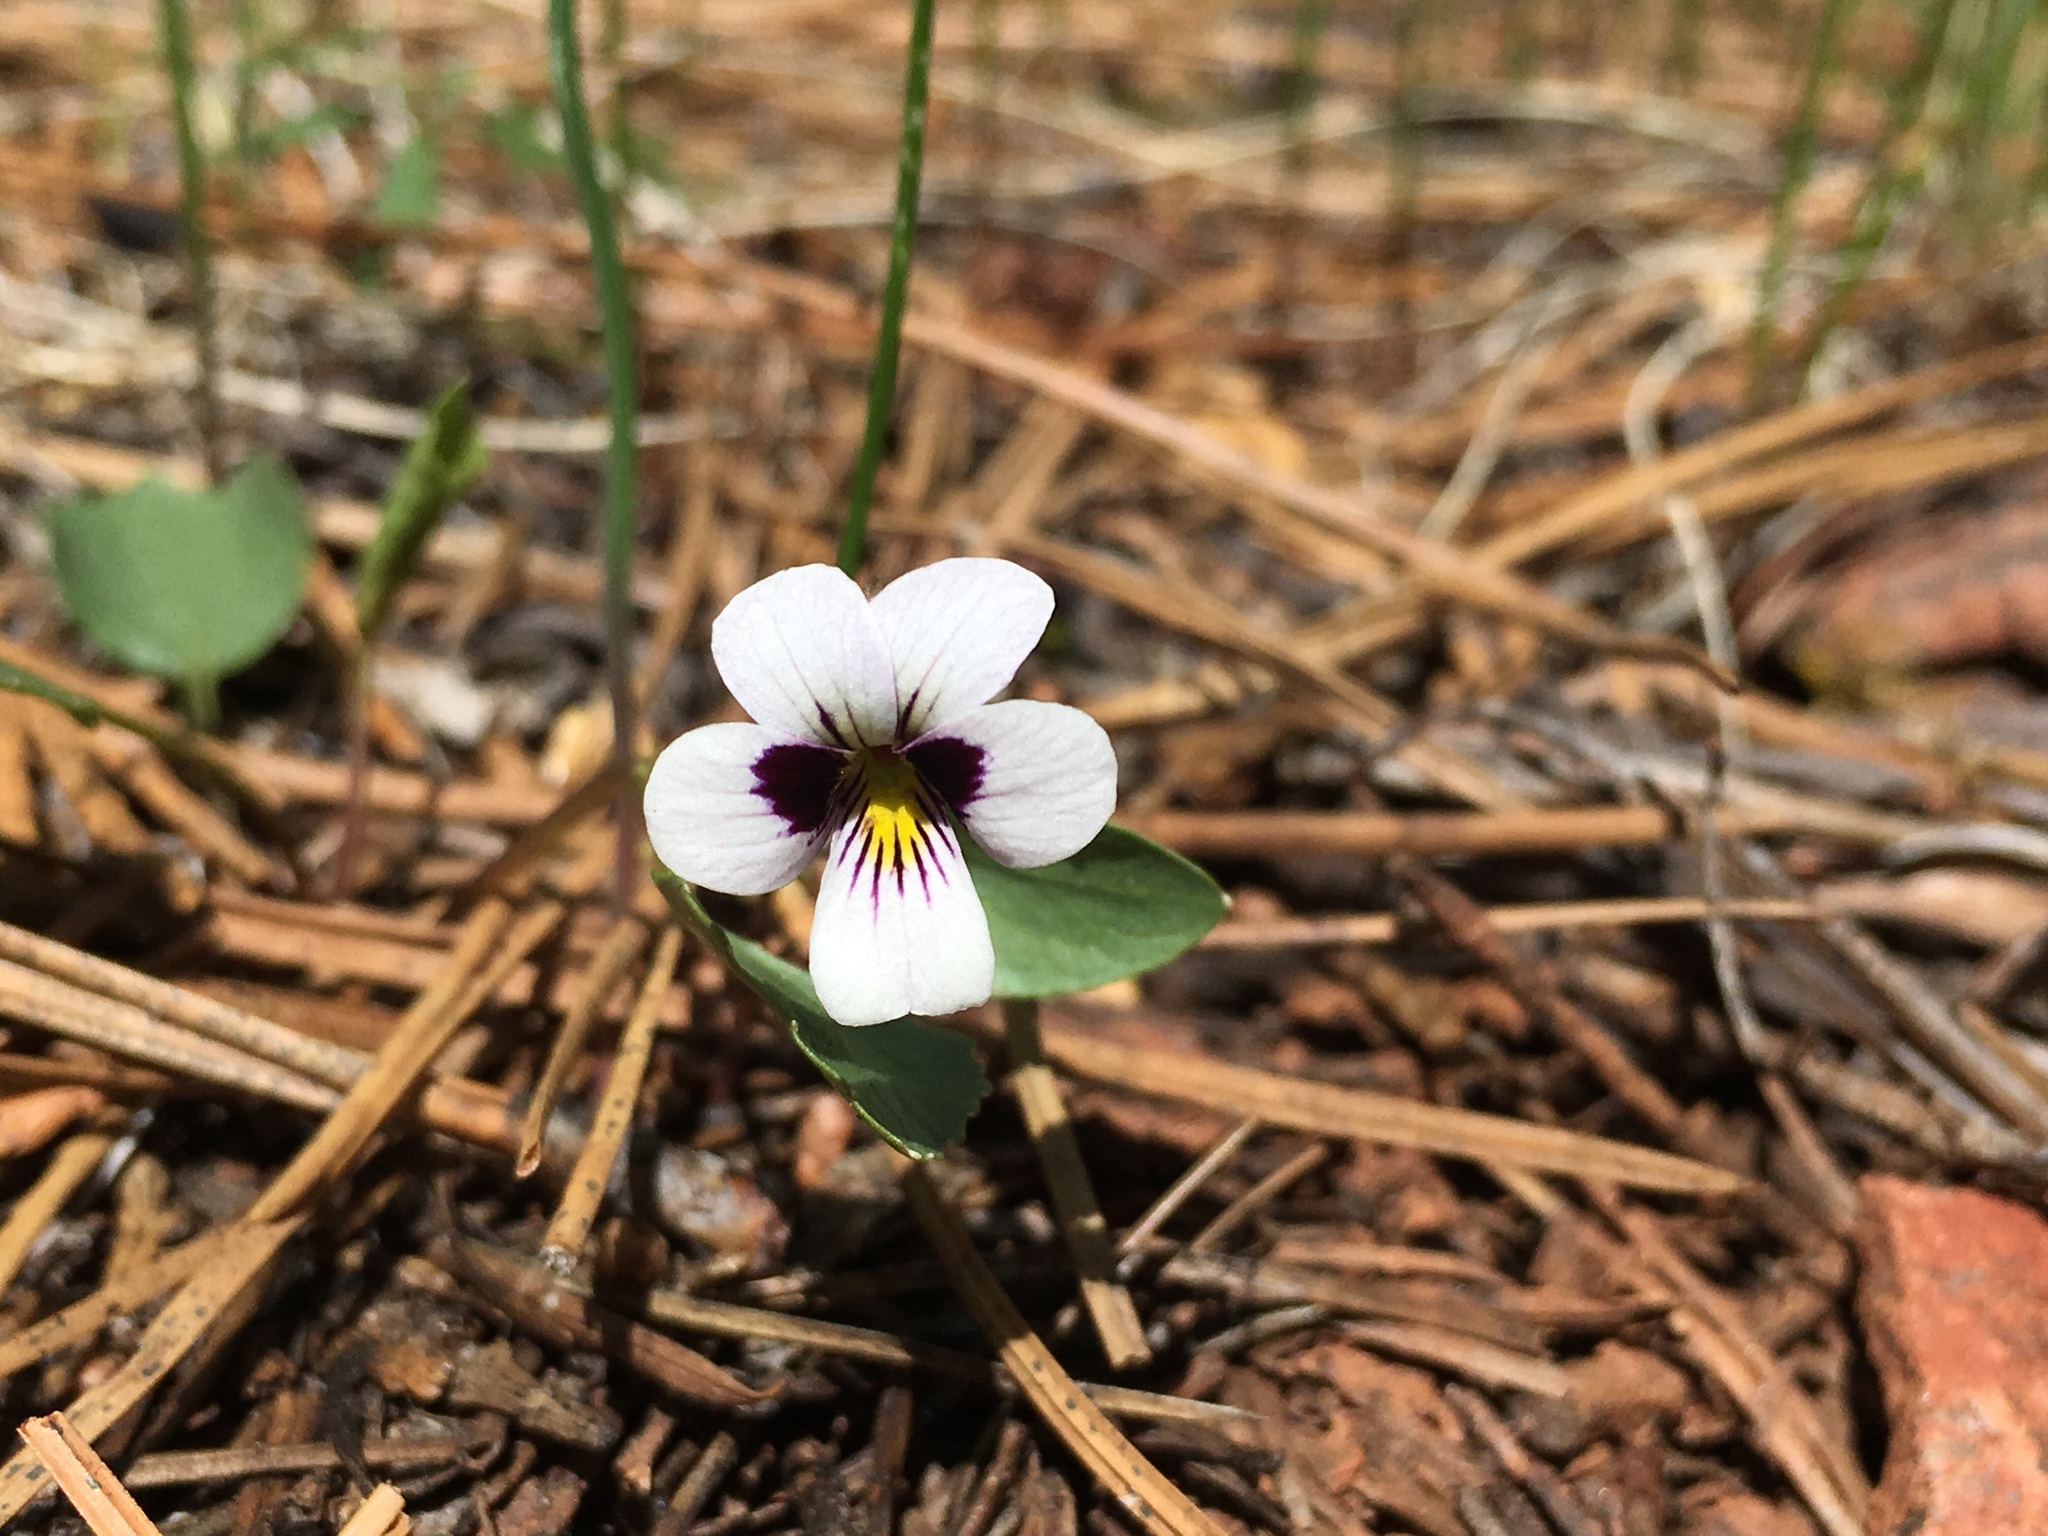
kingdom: Plantae
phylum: Tracheophyta
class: Magnoliopsida
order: Malpighiales
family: Violaceae
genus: Viola
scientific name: Viola cuneata
